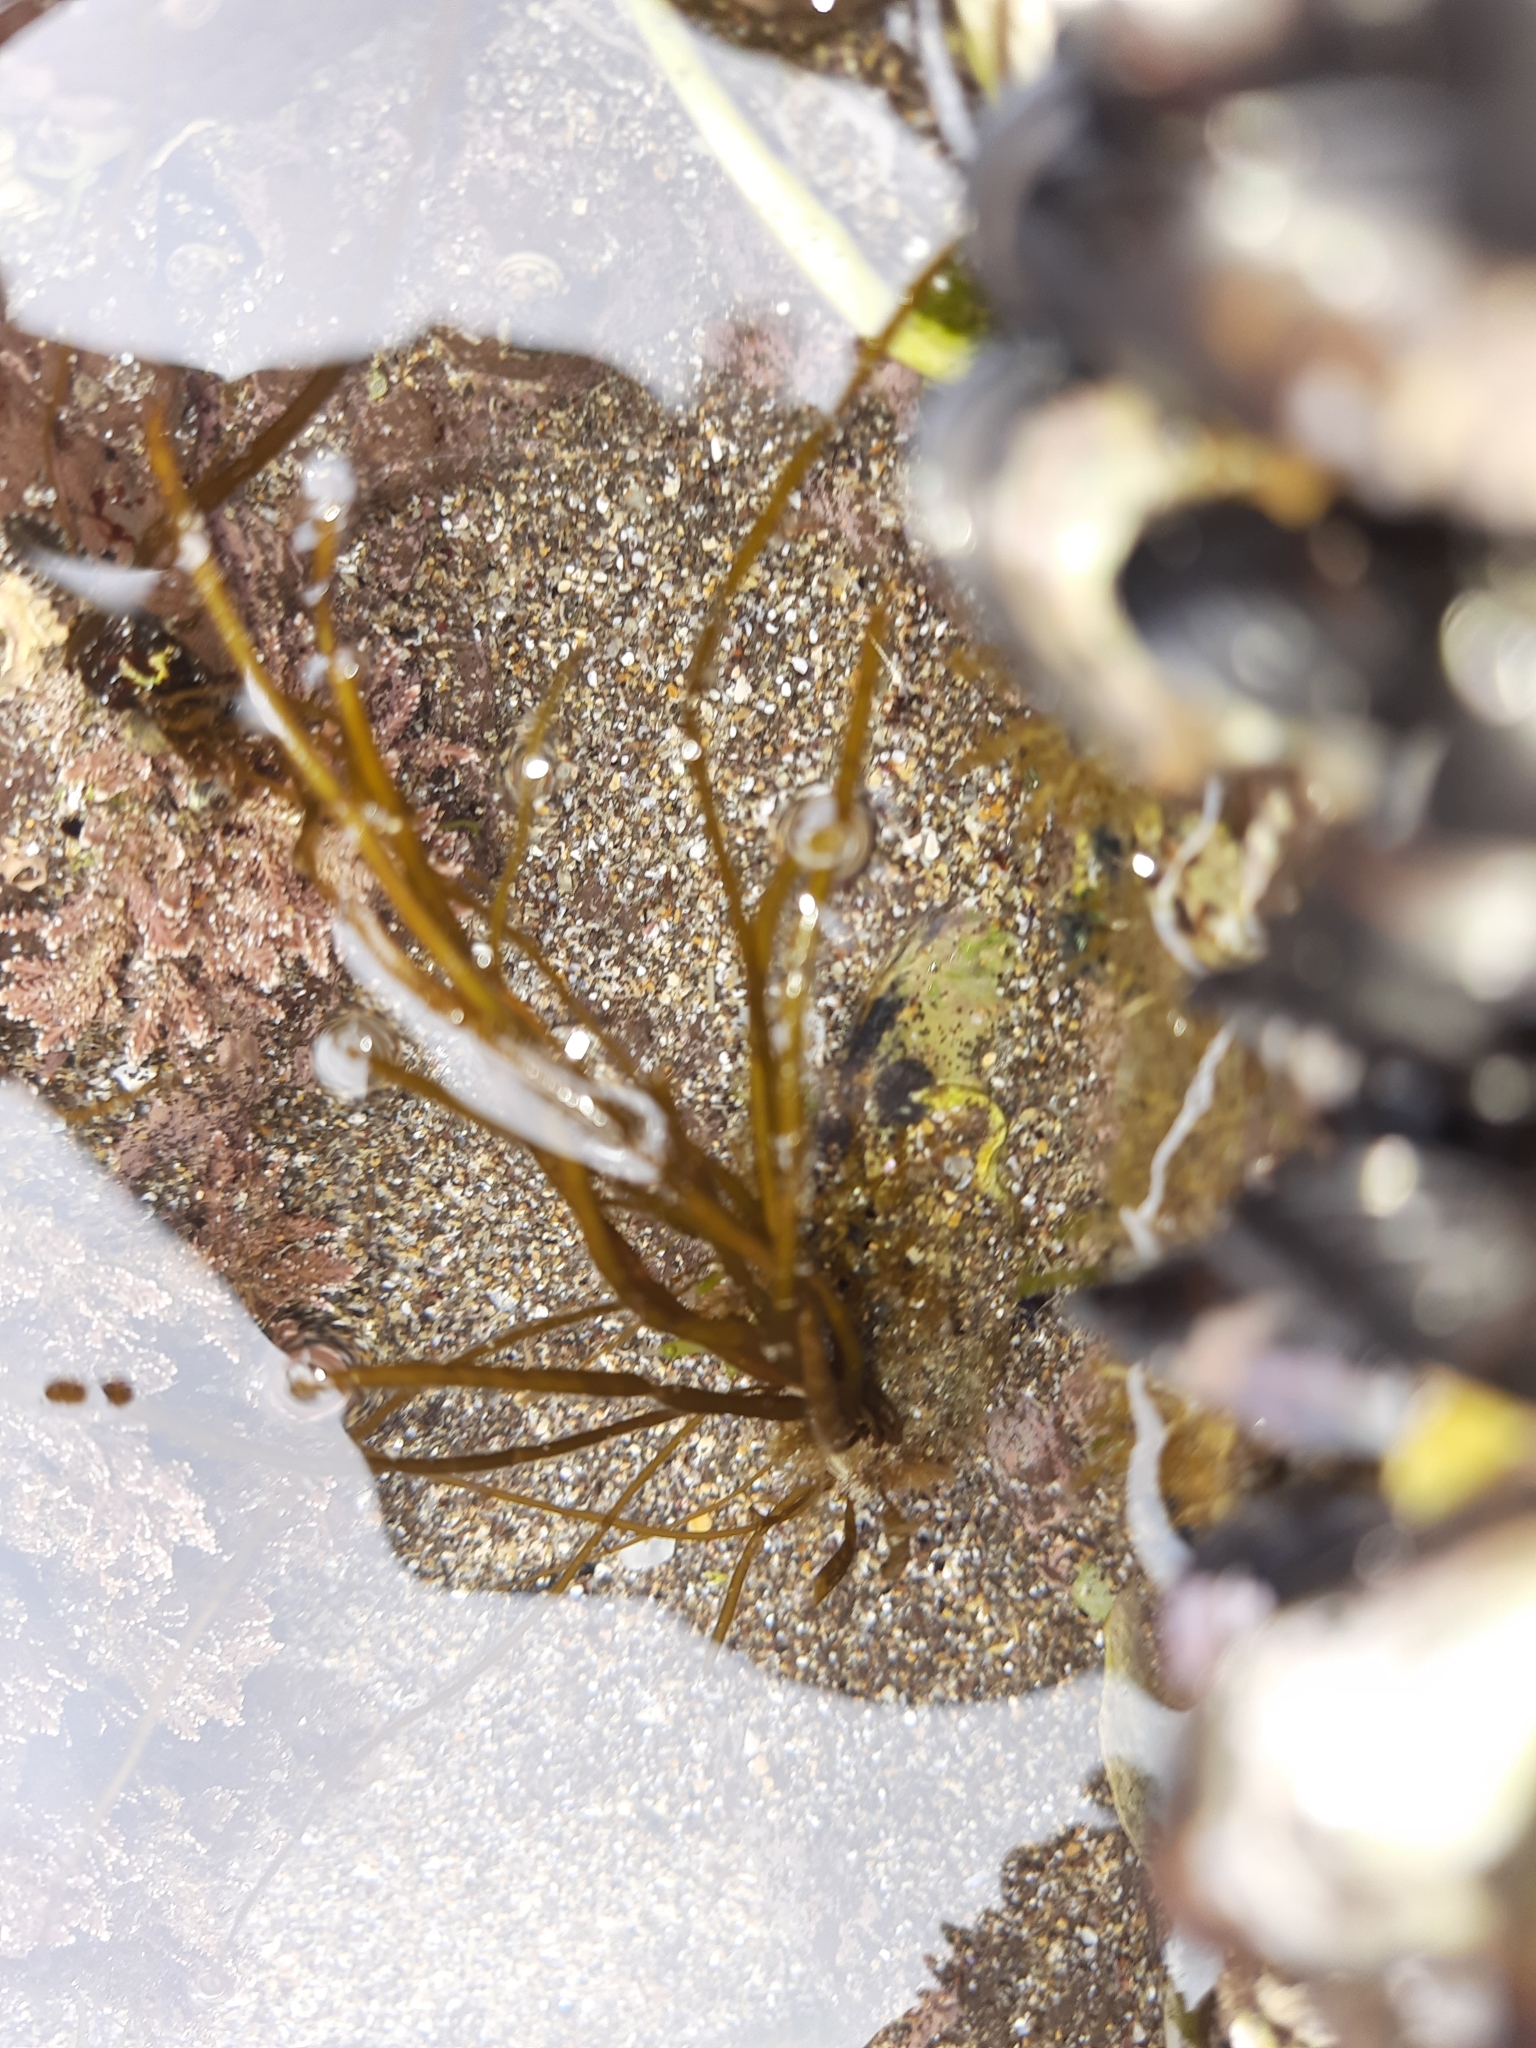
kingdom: Chromista
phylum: Ochrophyta
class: Phaeophyceae
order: Scytosiphonales
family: Scytosiphonaceae
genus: Scytosiphon
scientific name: Scytosiphon lomentaria
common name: Beanweed
